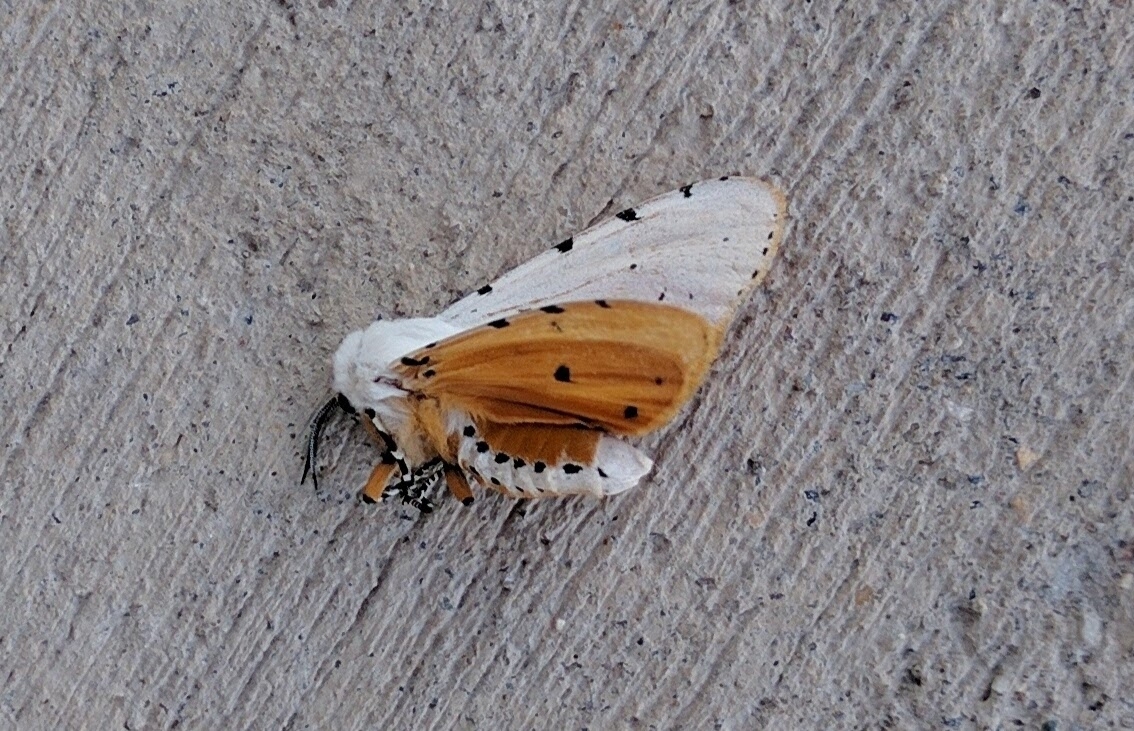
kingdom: Animalia
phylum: Arthropoda
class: Insecta
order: Lepidoptera
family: Erebidae
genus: Estigmene
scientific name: Estigmene acrea
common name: Salt marsh moth
